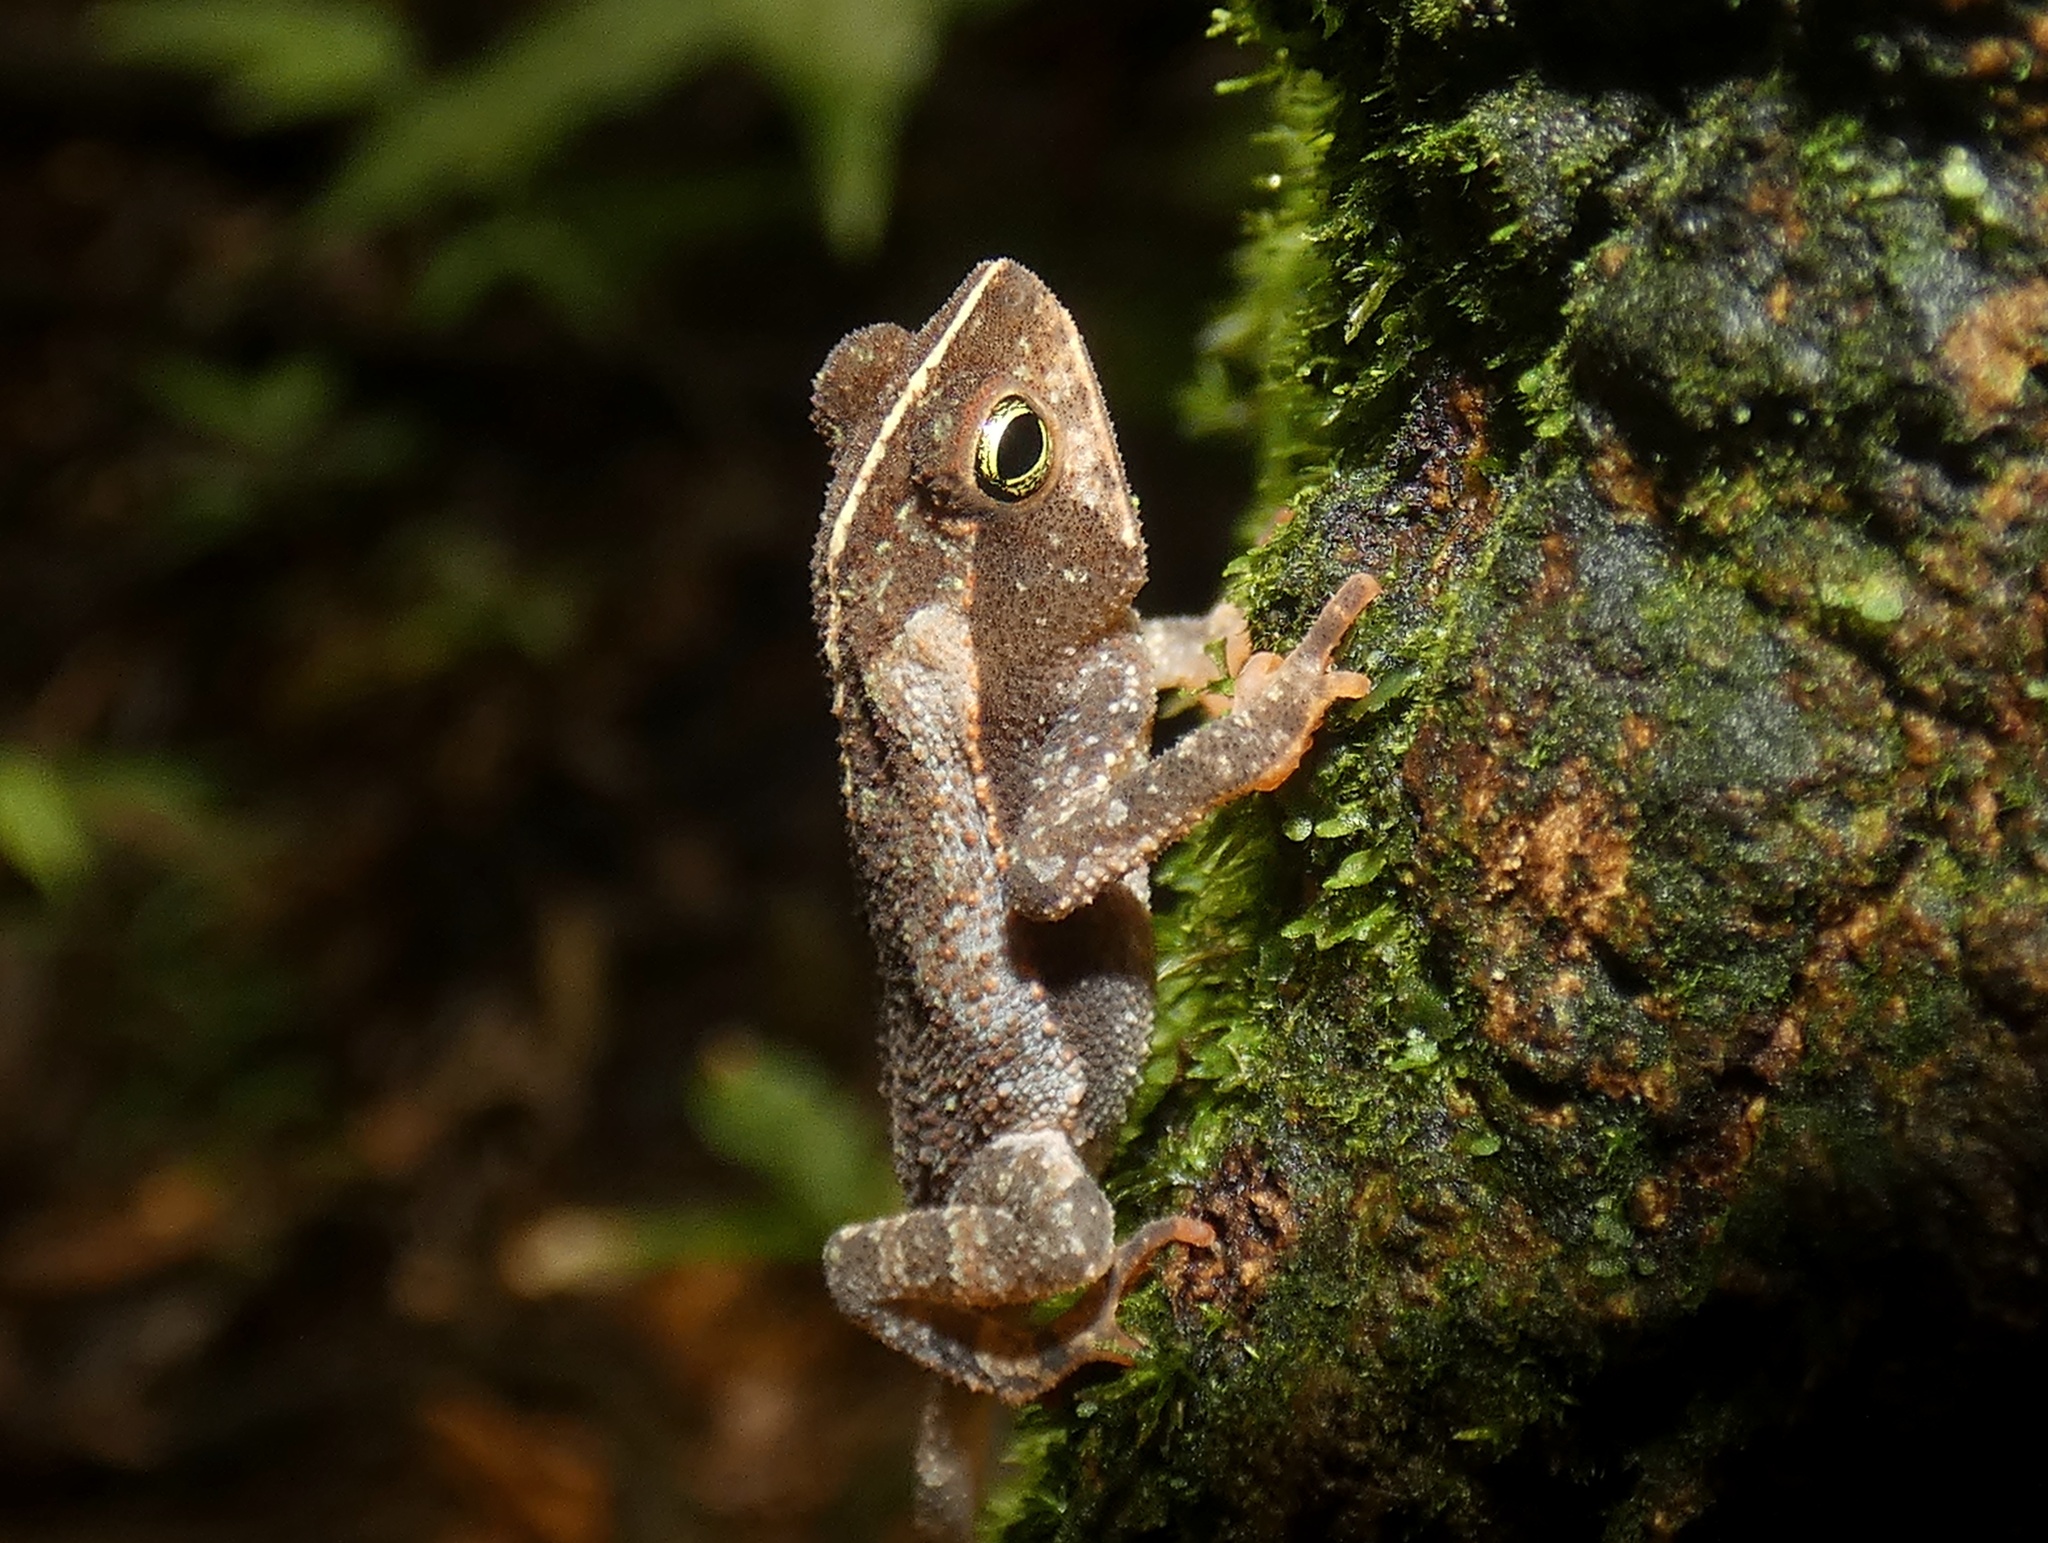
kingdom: Animalia
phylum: Chordata
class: Amphibia
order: Anura
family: Bufonidae
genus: Rhinella
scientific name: Rhinella alata
